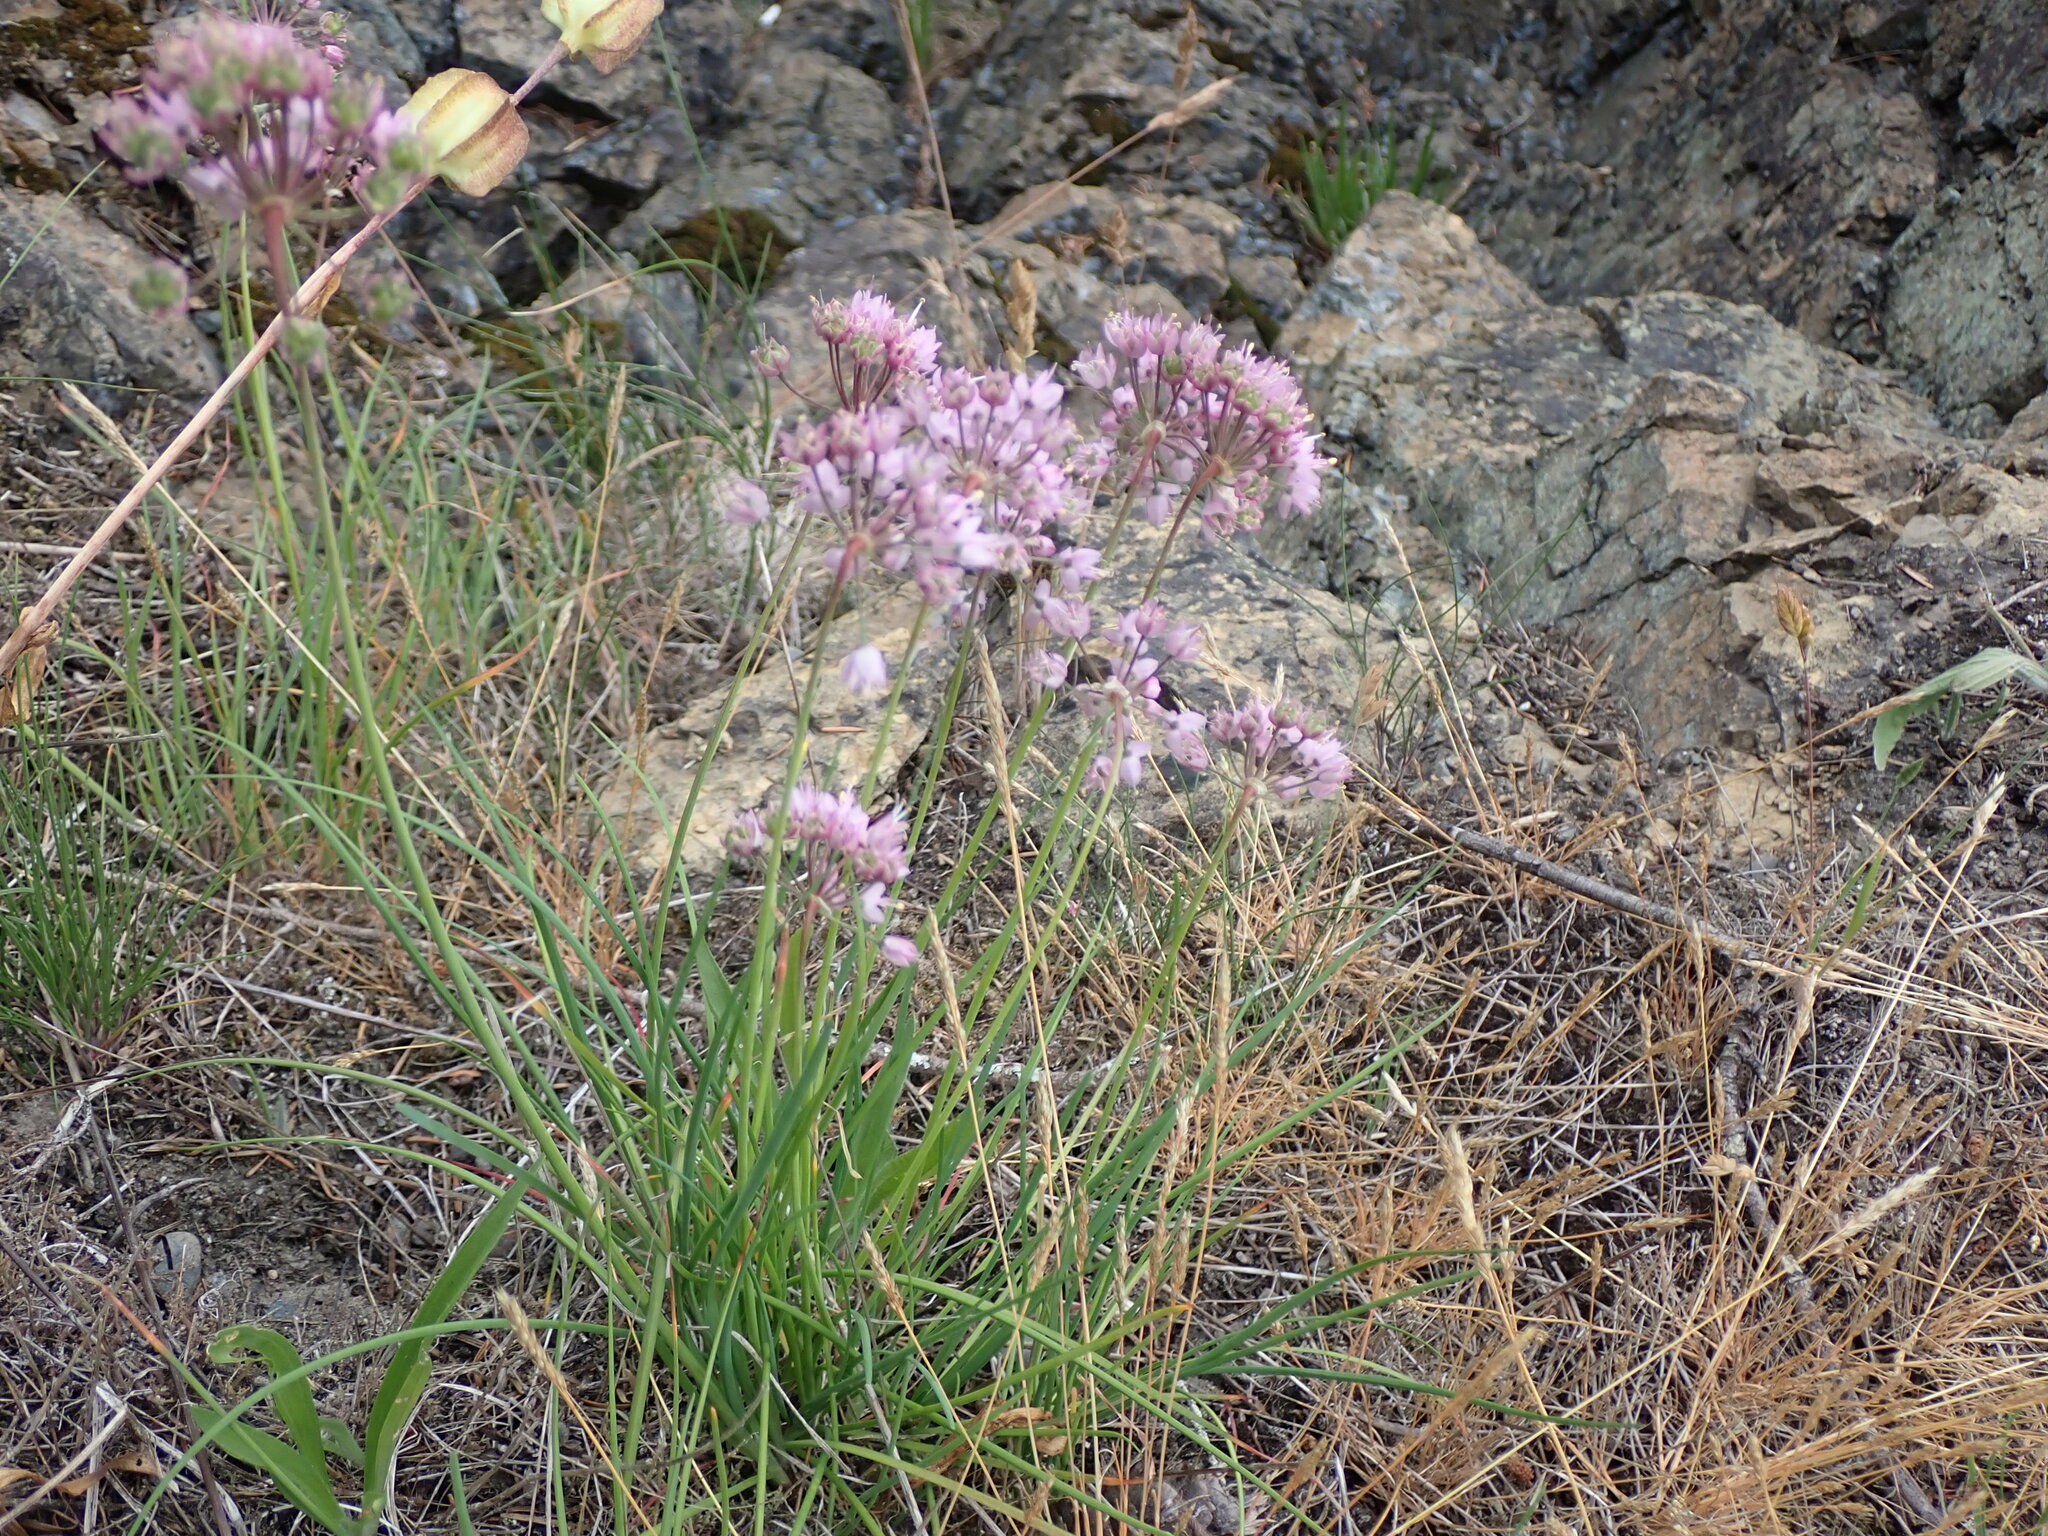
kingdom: Plantae
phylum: Tracheophyta
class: Liliopsida
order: Asparagales
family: Amaryllidaceae
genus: Allium
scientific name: Allium cernuum
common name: Nodding onion
